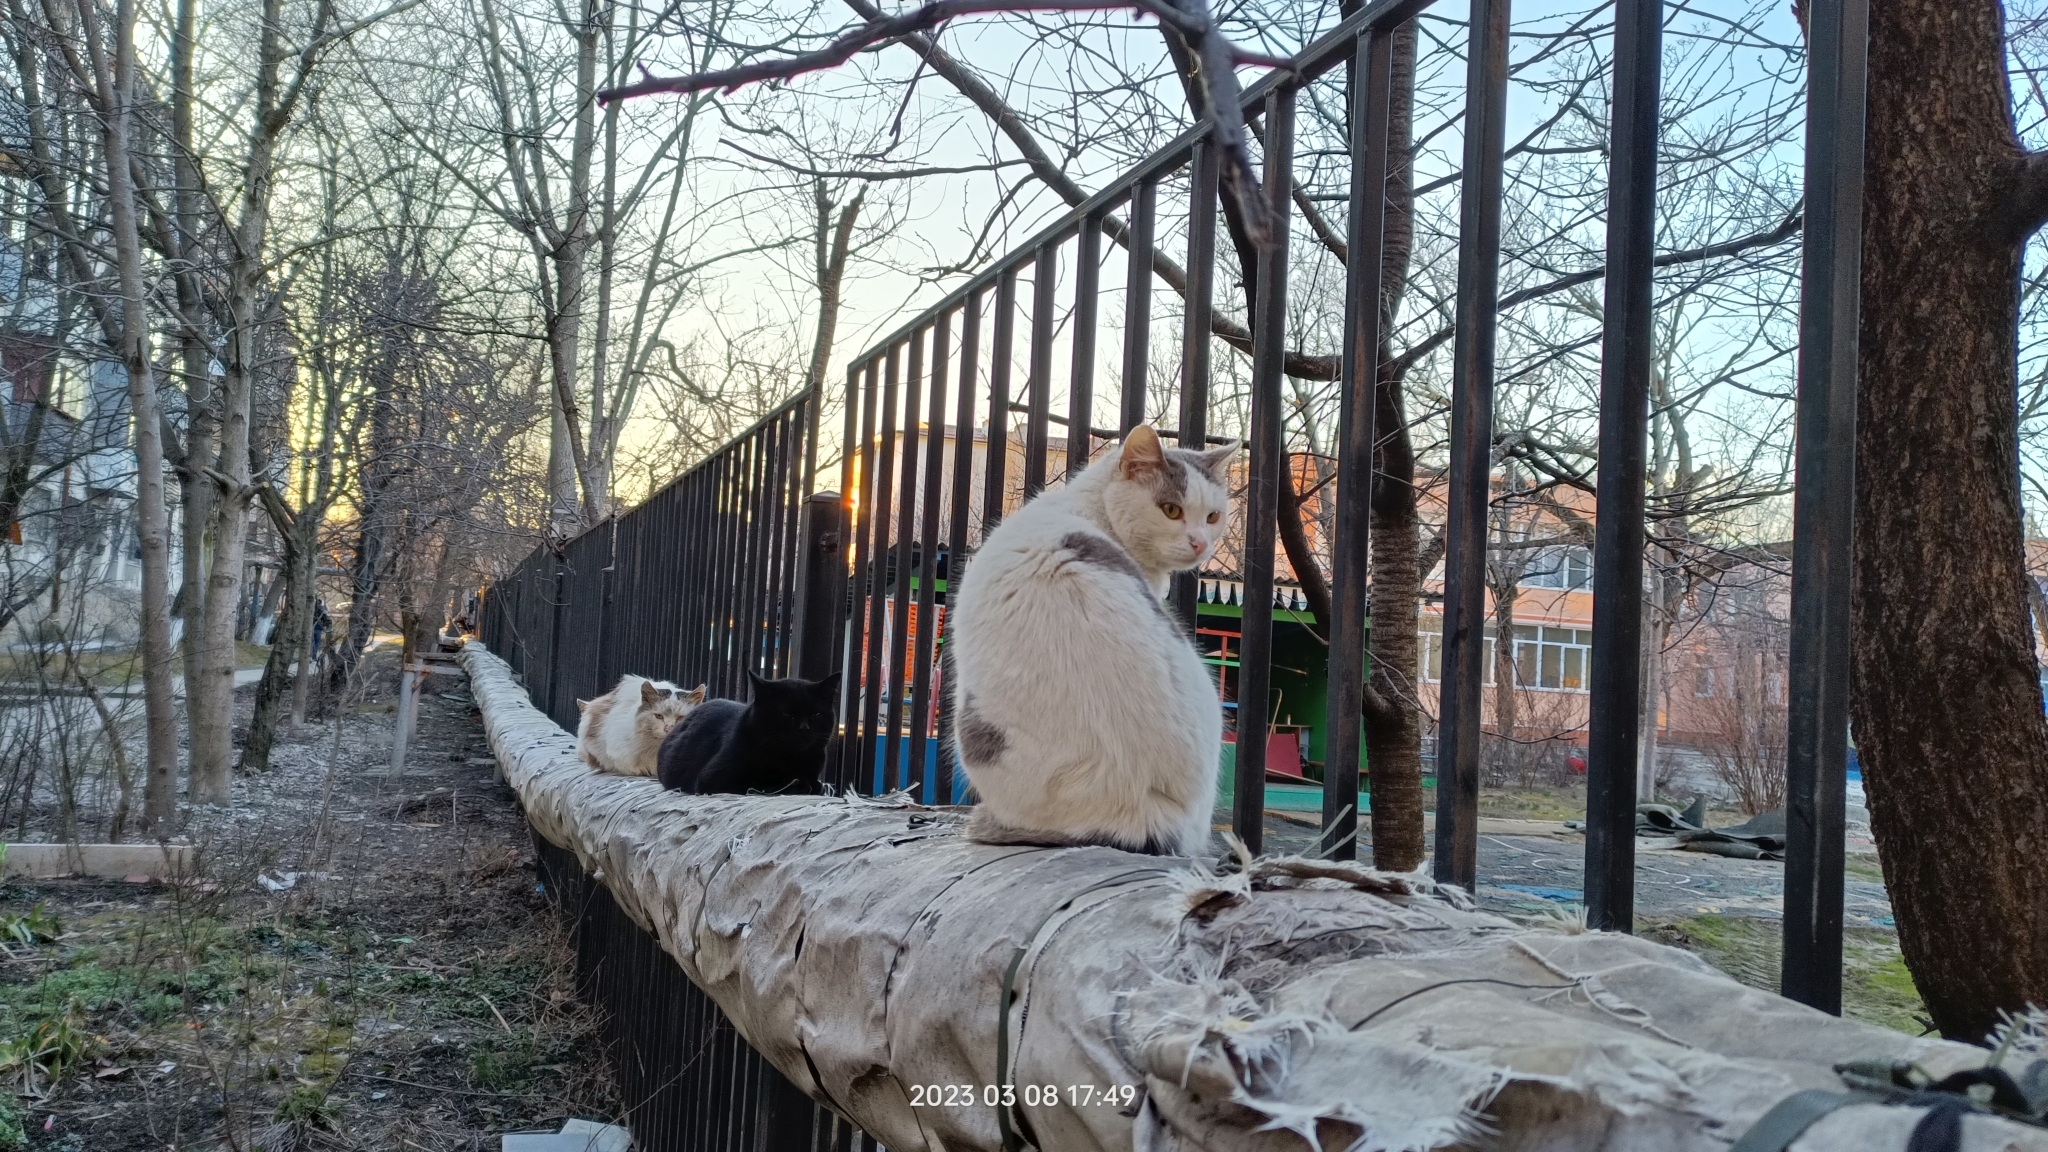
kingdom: Animalia
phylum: Chordata
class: Mammalia
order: Carnivora
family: Felidae
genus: Felis
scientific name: Felis catus
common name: Domestic cat
